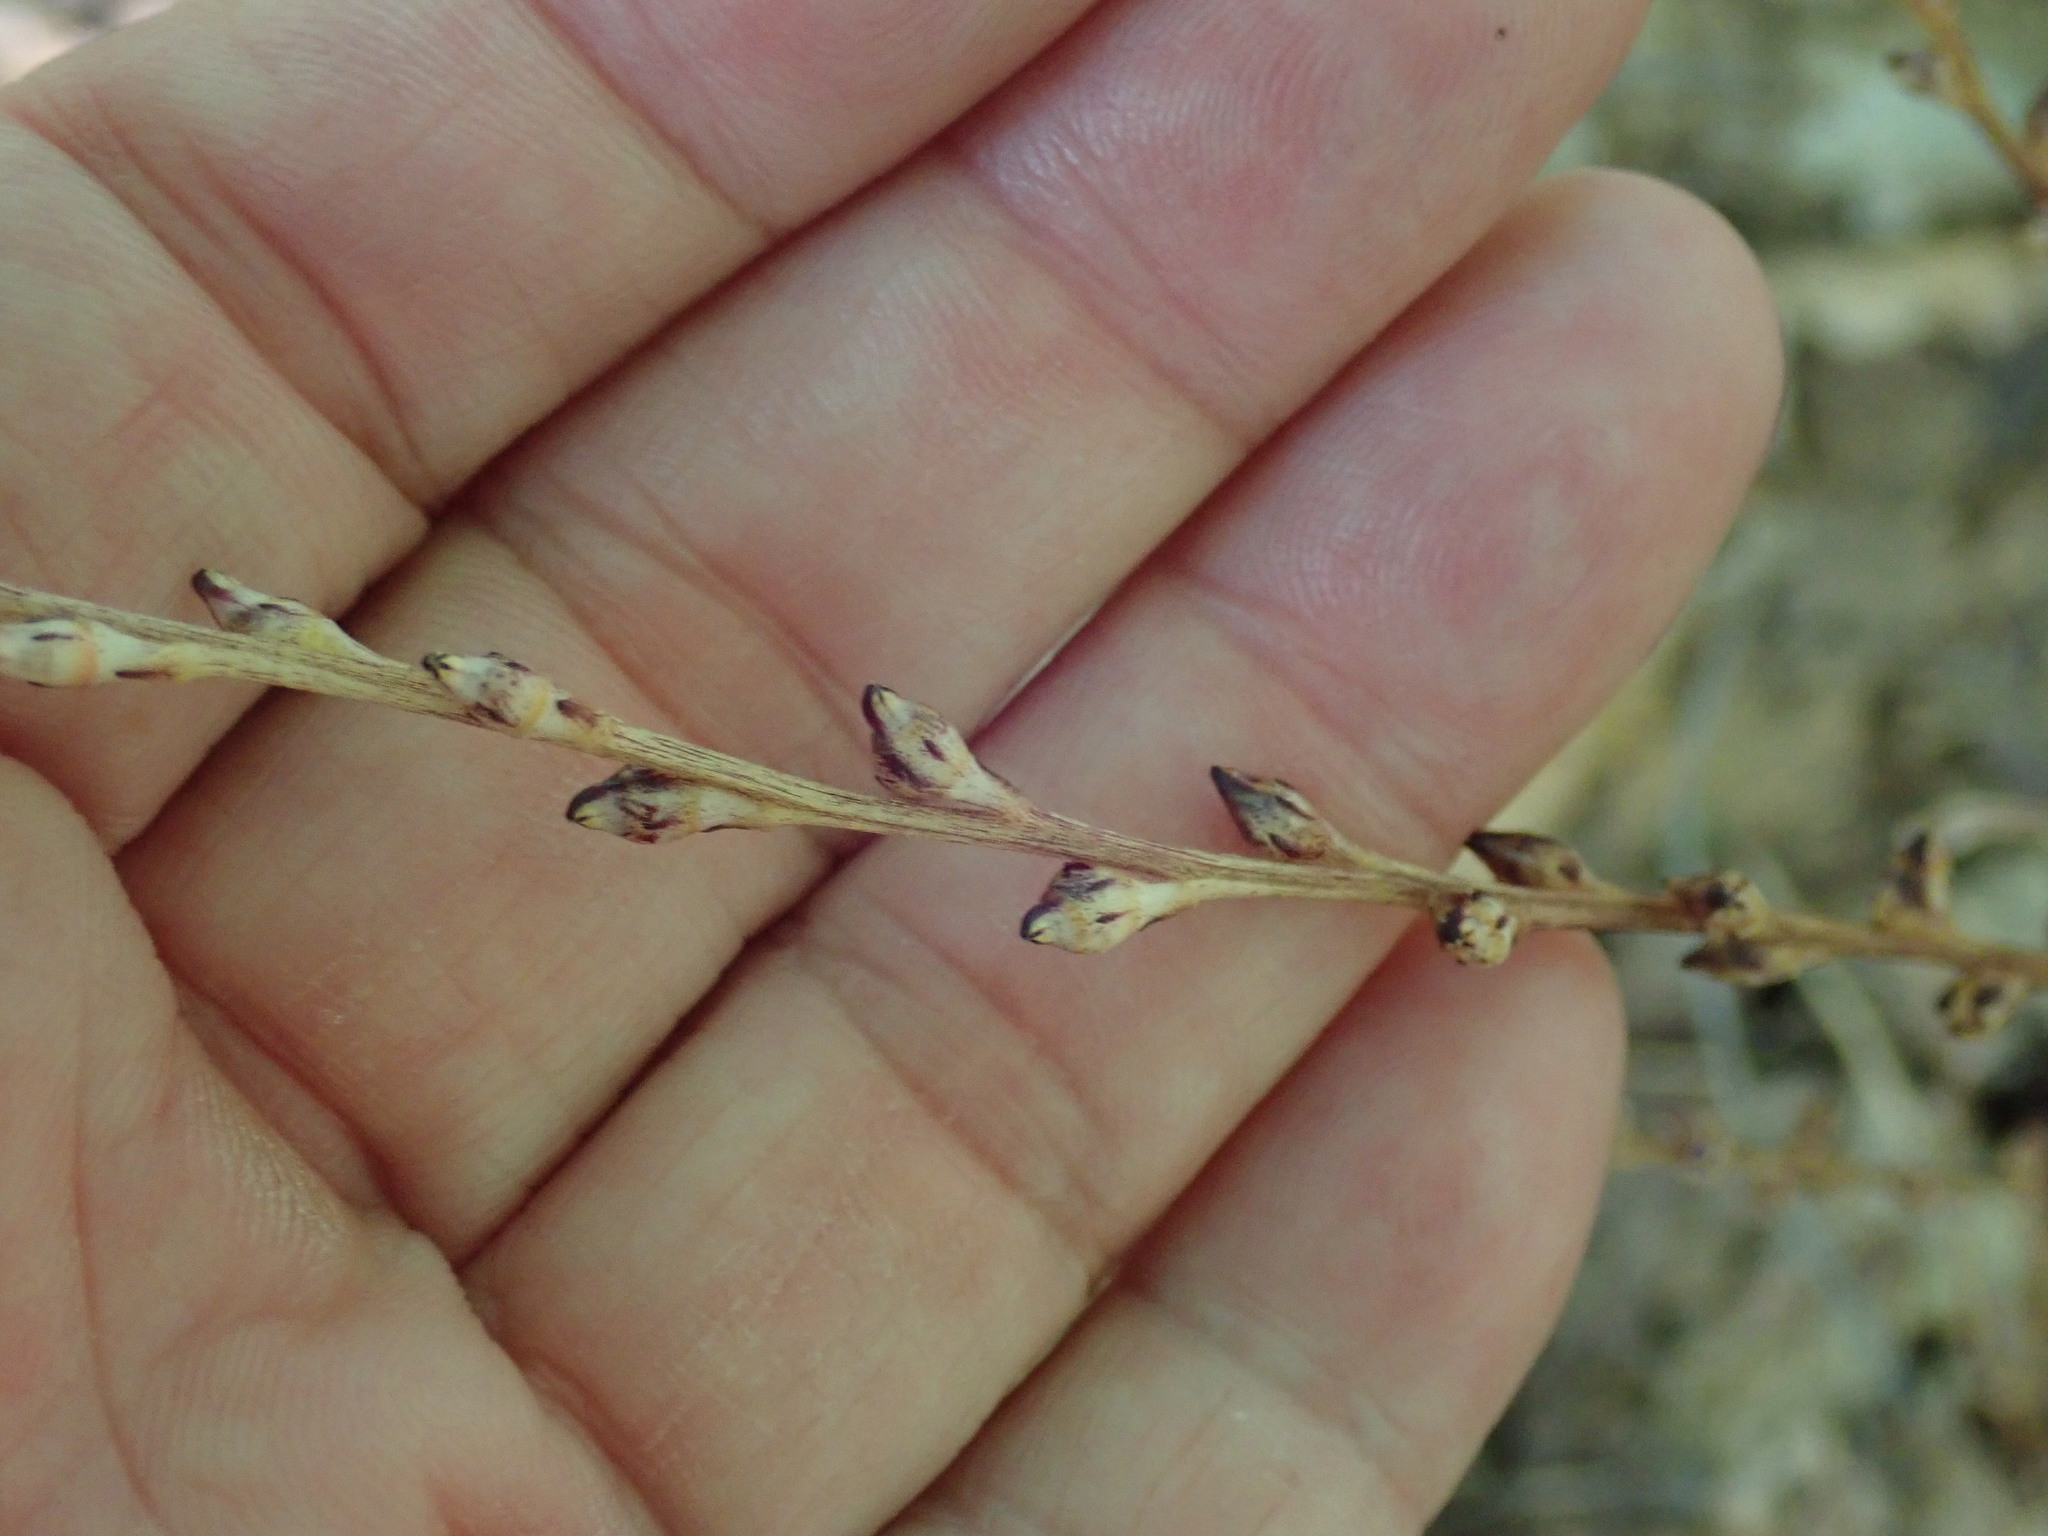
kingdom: Plantae
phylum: Tracheophyta
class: Magnoliopsida
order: Lamiales
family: Orobanchaceae
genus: Epifagus
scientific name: Epifagus virginiana
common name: Beechdrops
